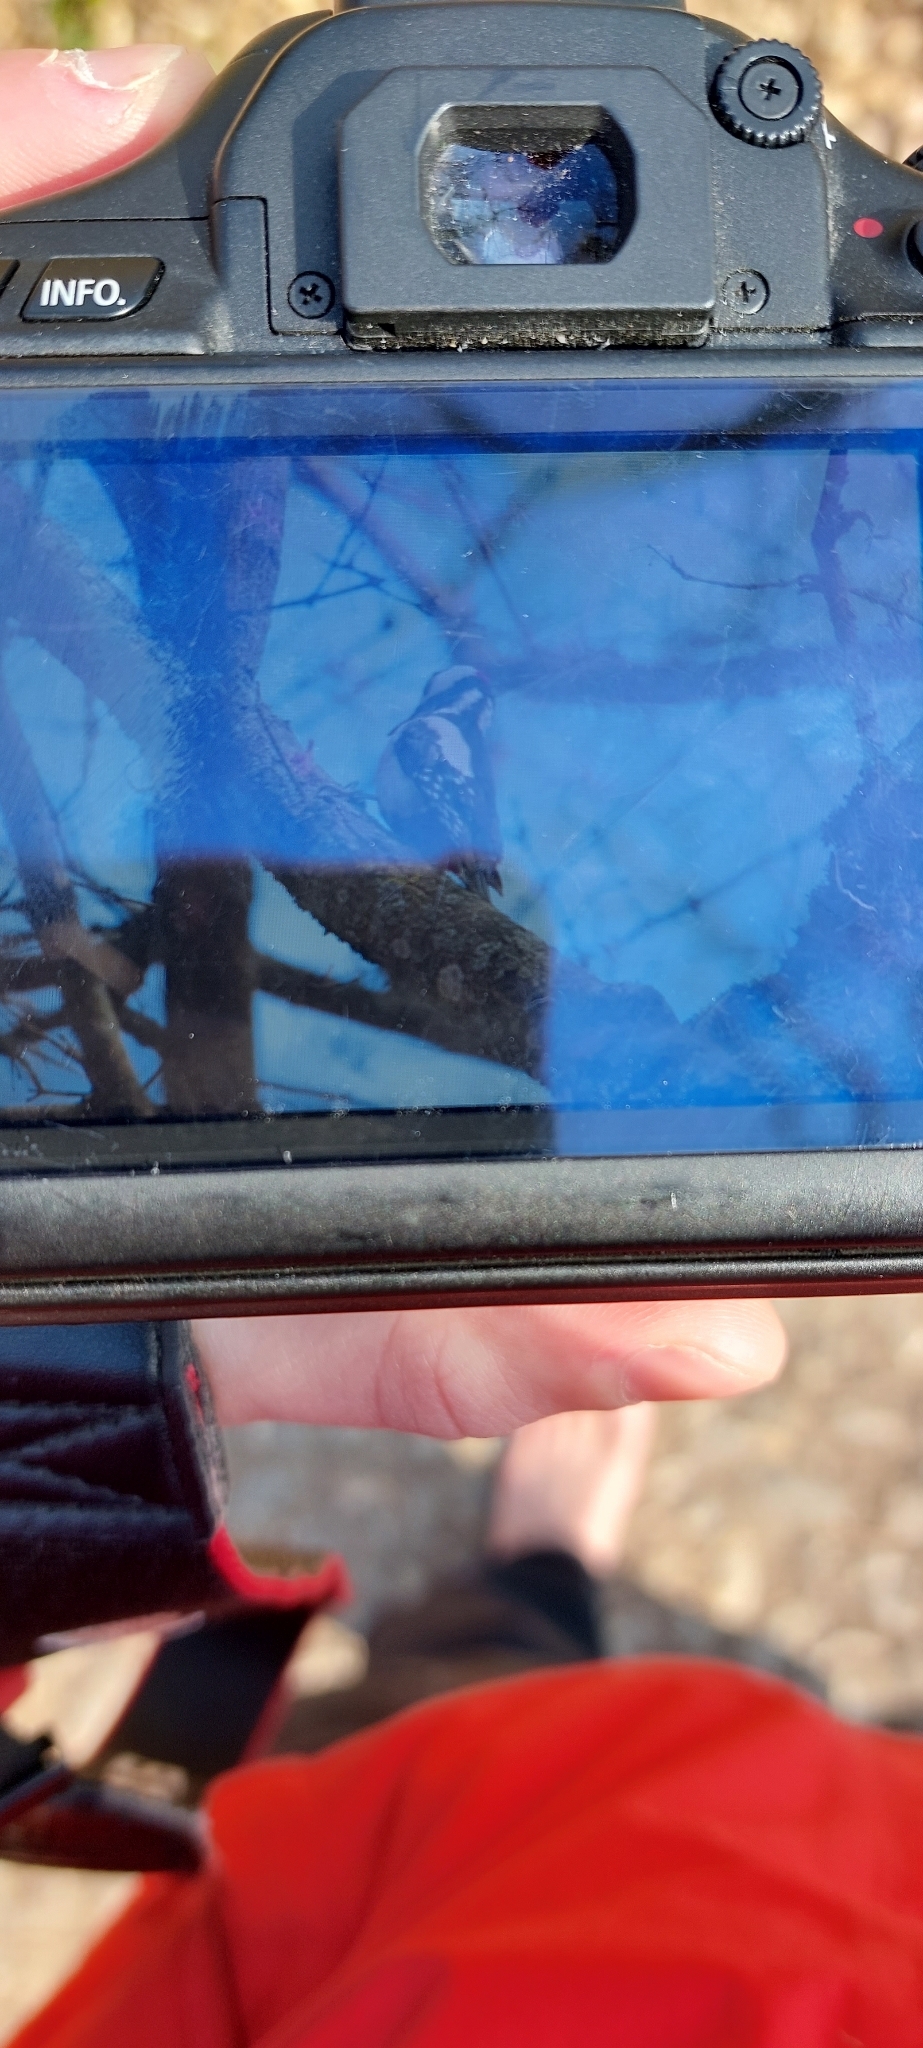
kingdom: Animalia
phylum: Chordata
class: Aves
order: Piciformes
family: Picidae
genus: Dendrocopos
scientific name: Dendrocopos major
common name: Great spotted woodpecker
